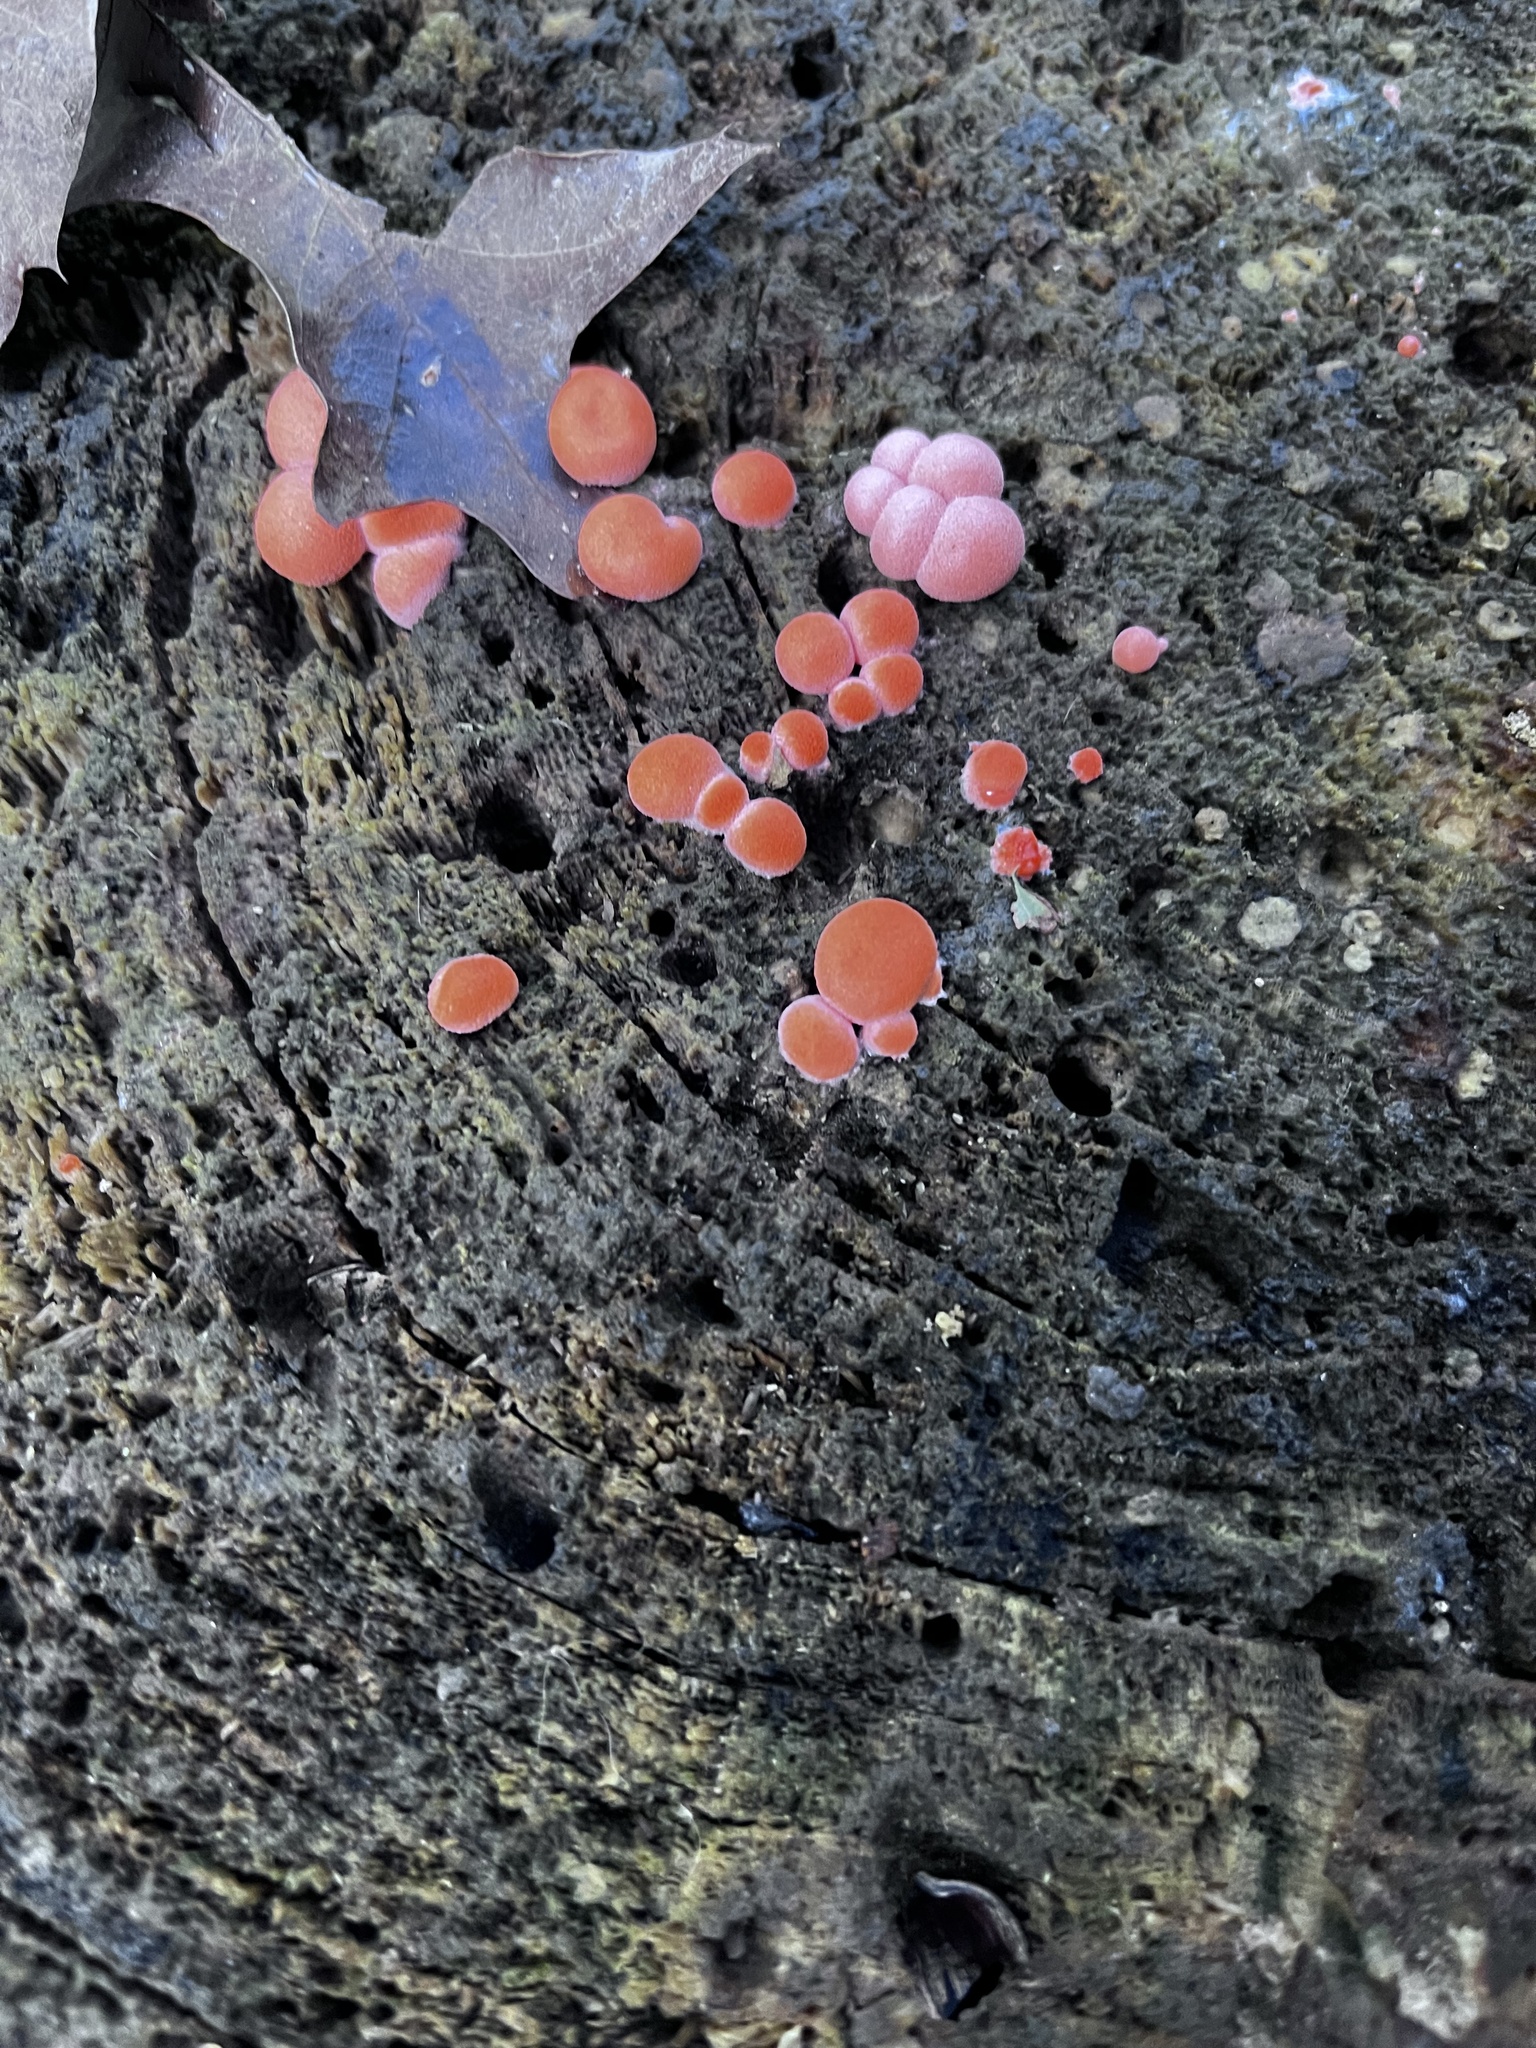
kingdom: Protozoa
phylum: Mycetozoa
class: Myxomycetes
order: Cribrariales
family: Tubiferaceae
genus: Lycogala
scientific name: Lycogala epidendrum
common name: Wolf's milk
